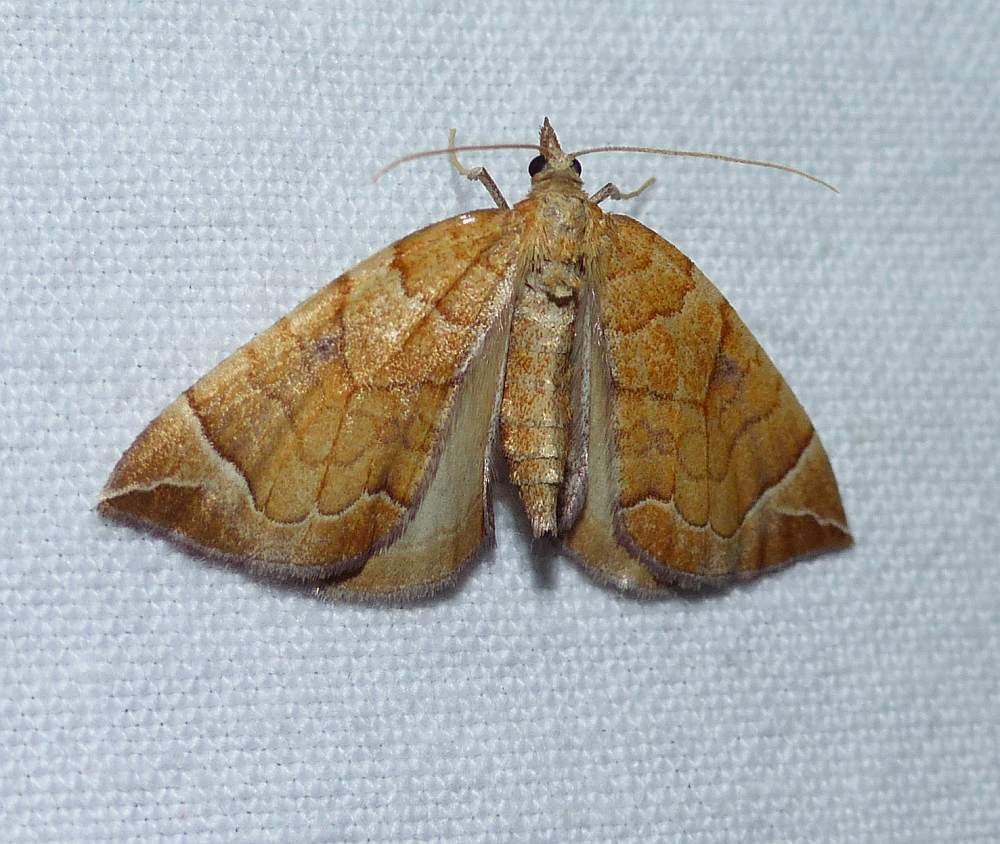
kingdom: Animalia
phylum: Arthropoda
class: Insecta
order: Lepidoptera
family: Geometridae
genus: Eulithis
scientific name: Eulithis testata
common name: Chevron
